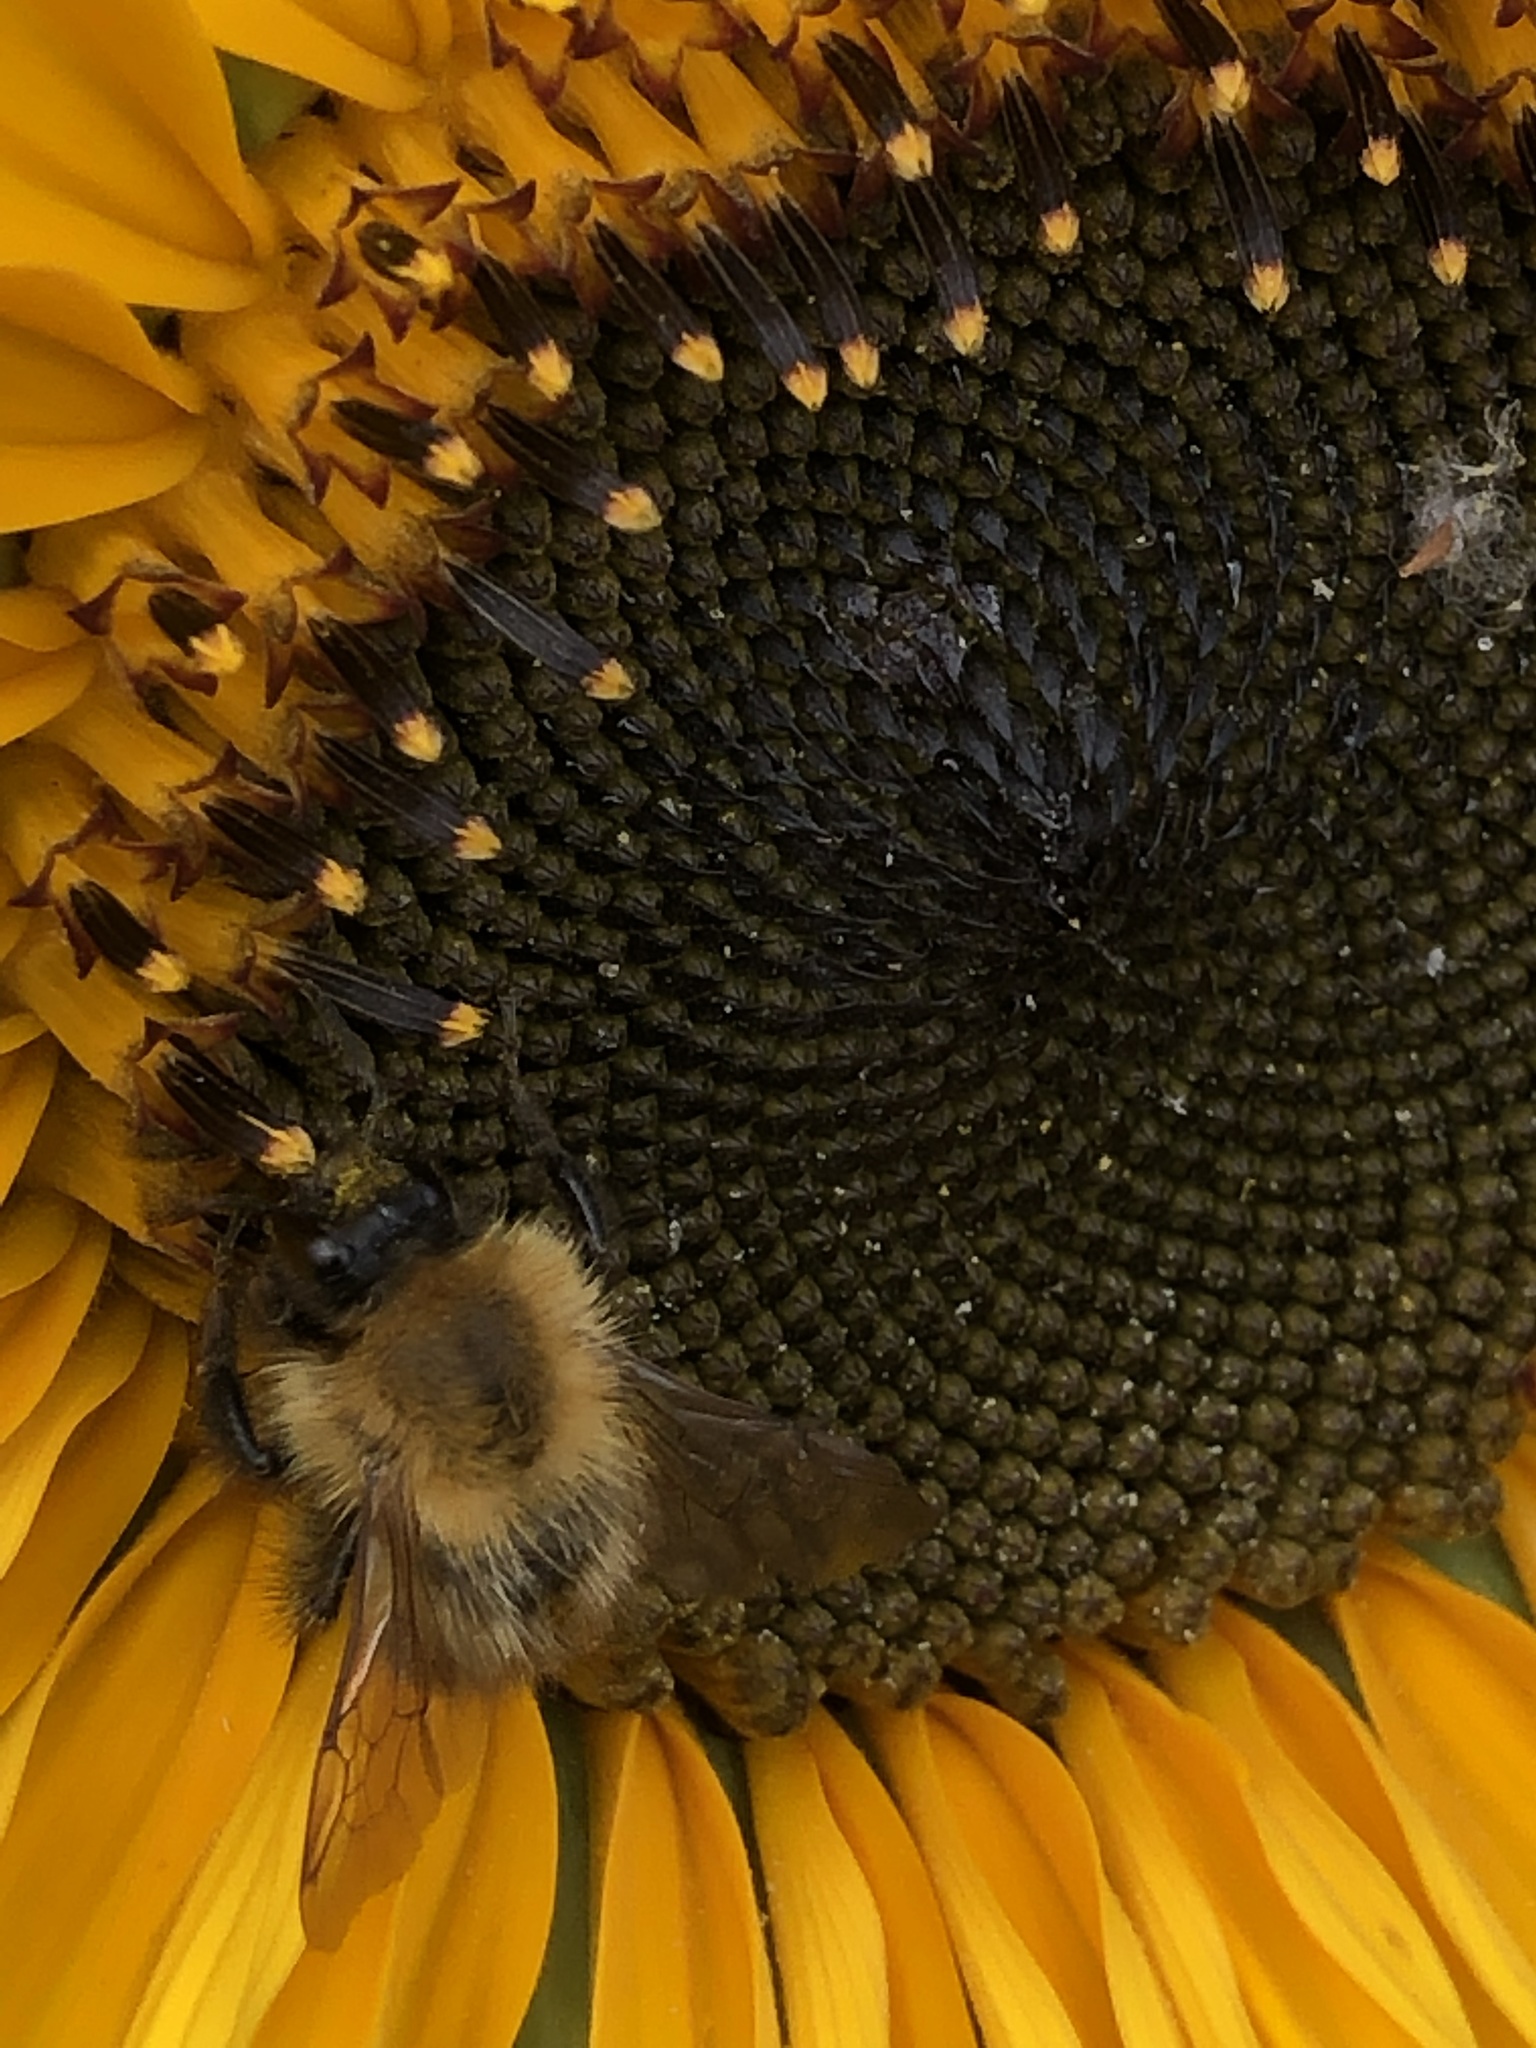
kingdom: Animalia
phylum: Arthropoda
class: Insecta
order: Hymenoptera
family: Apidae
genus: Bombus
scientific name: Bombus pascuorum
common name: Common carder bee
